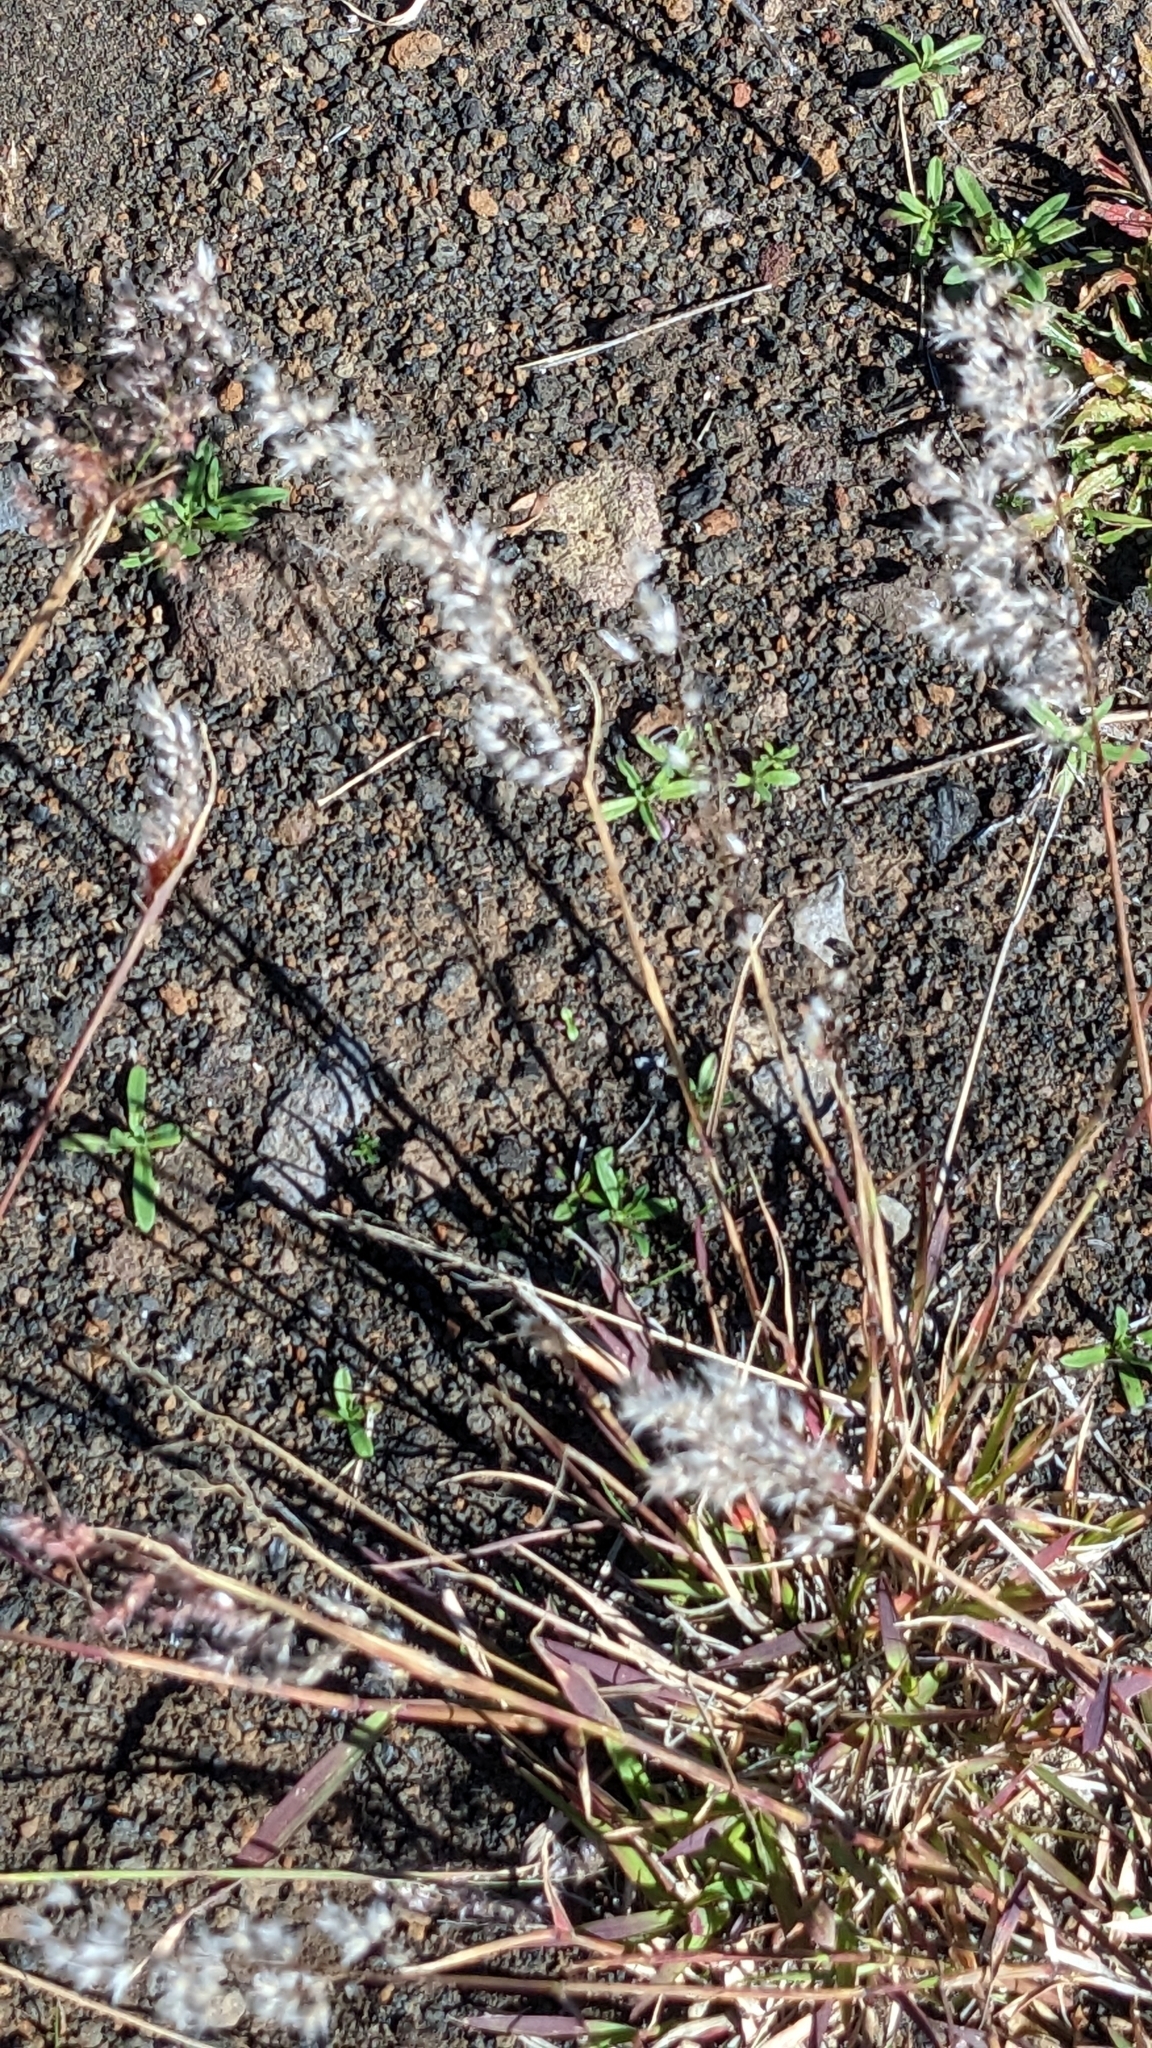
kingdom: Plantae
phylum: Tracheophyta
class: Liliopsida
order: Poales
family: Poaceae
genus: Melinis
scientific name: Melinis repens
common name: Rose natal grass
